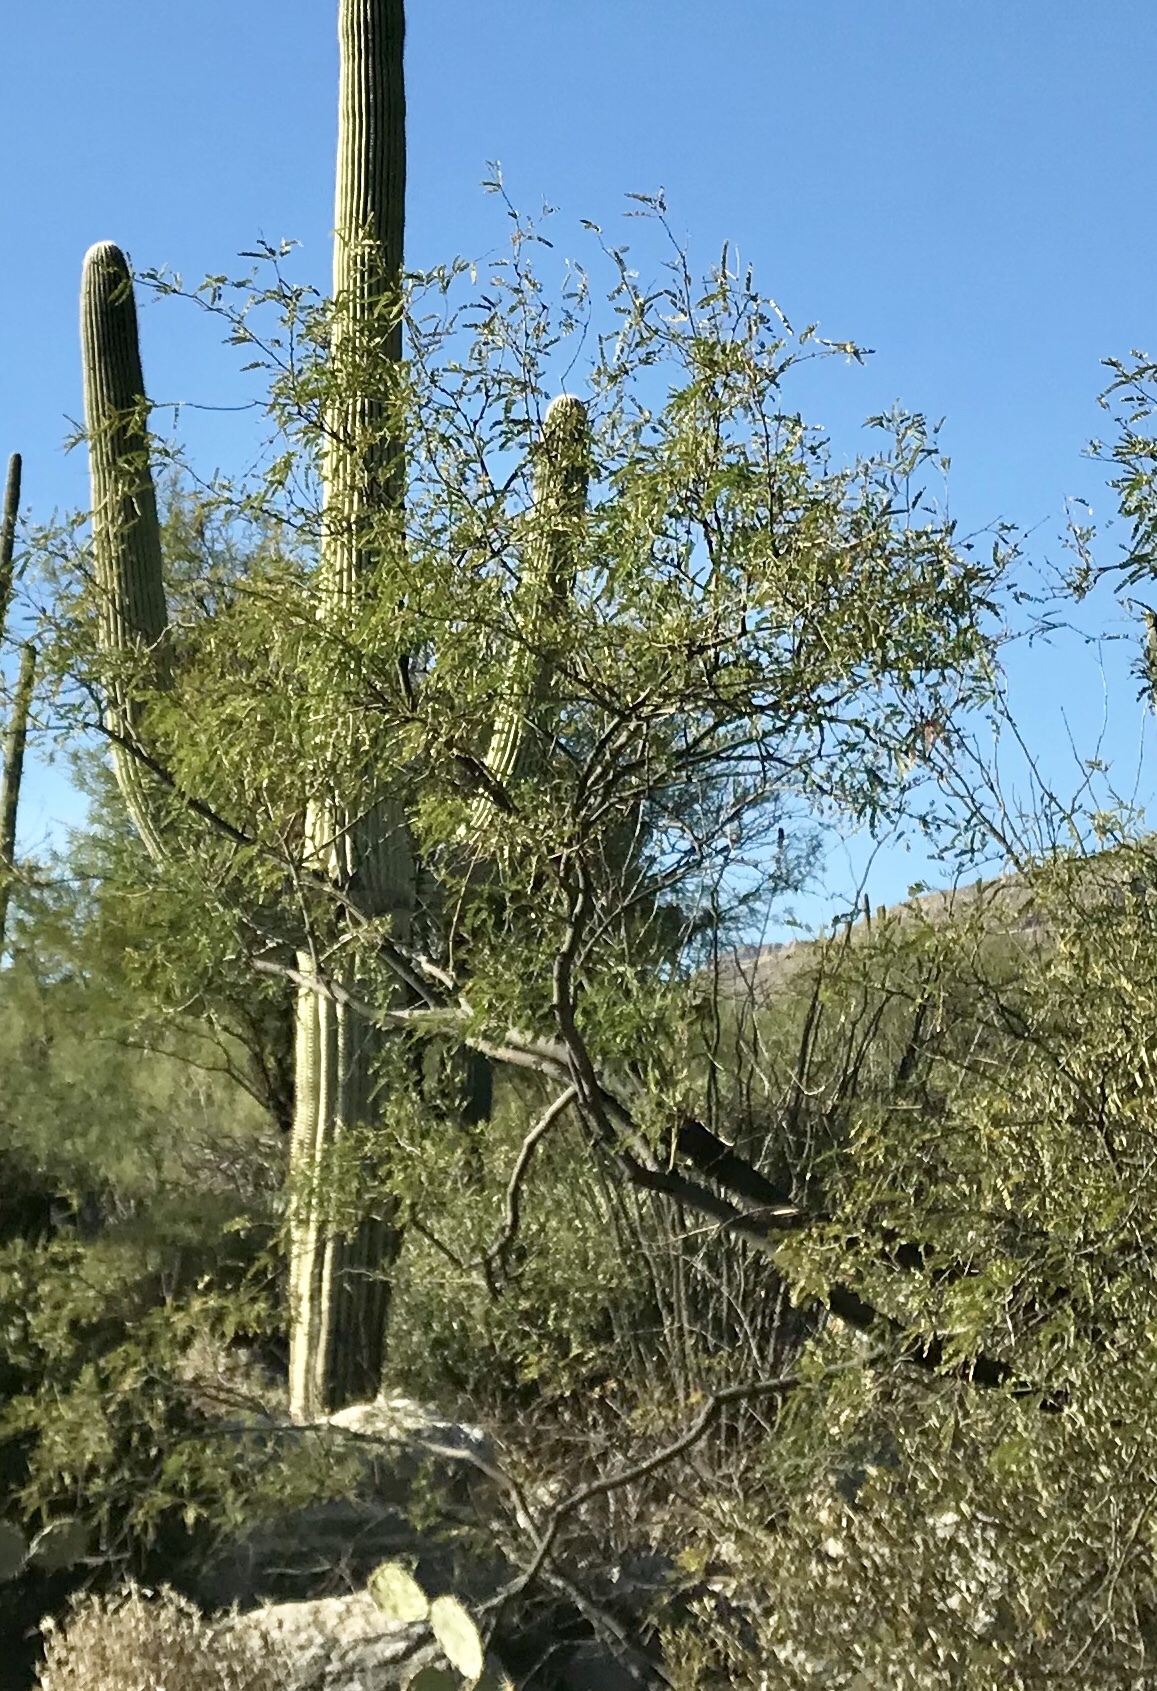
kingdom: Plantae
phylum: Tracheophyta
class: Magnoliopsida
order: Fabales
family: Fabaceae
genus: Prosopis
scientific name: Prosopis velutina
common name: Velvet mesquite
